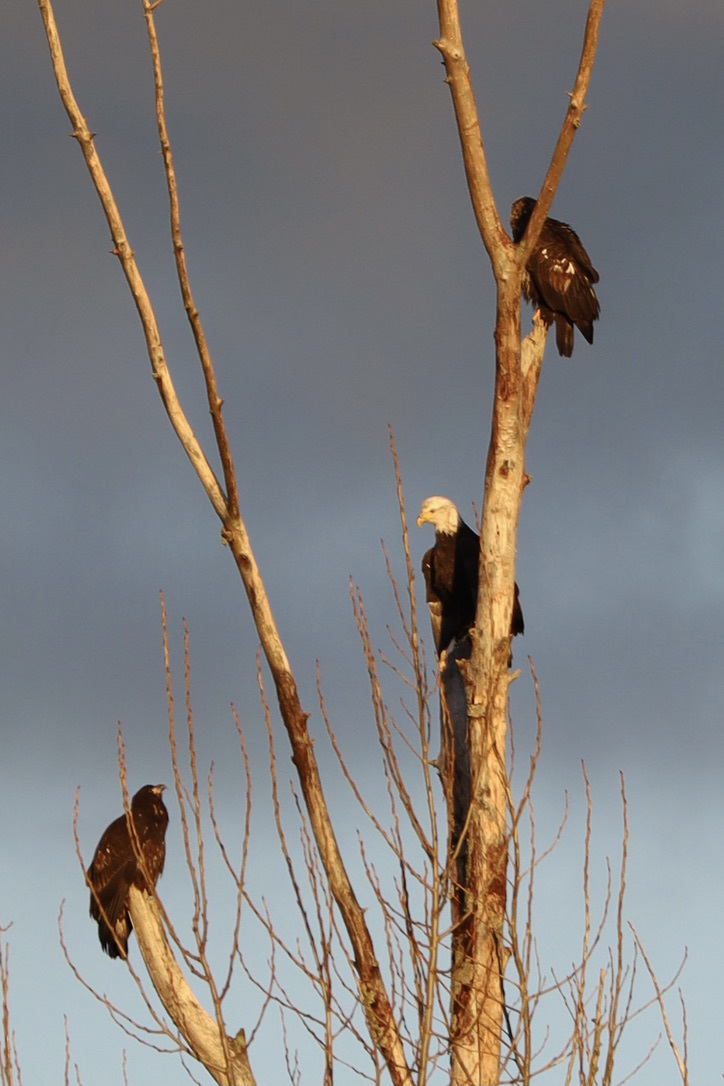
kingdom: Animalia
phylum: Chordata
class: Aves
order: Accipitriformes
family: Accipitridae
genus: Haliaeetus
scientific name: Haliaeetus leucocephalus
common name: Bald eagle
